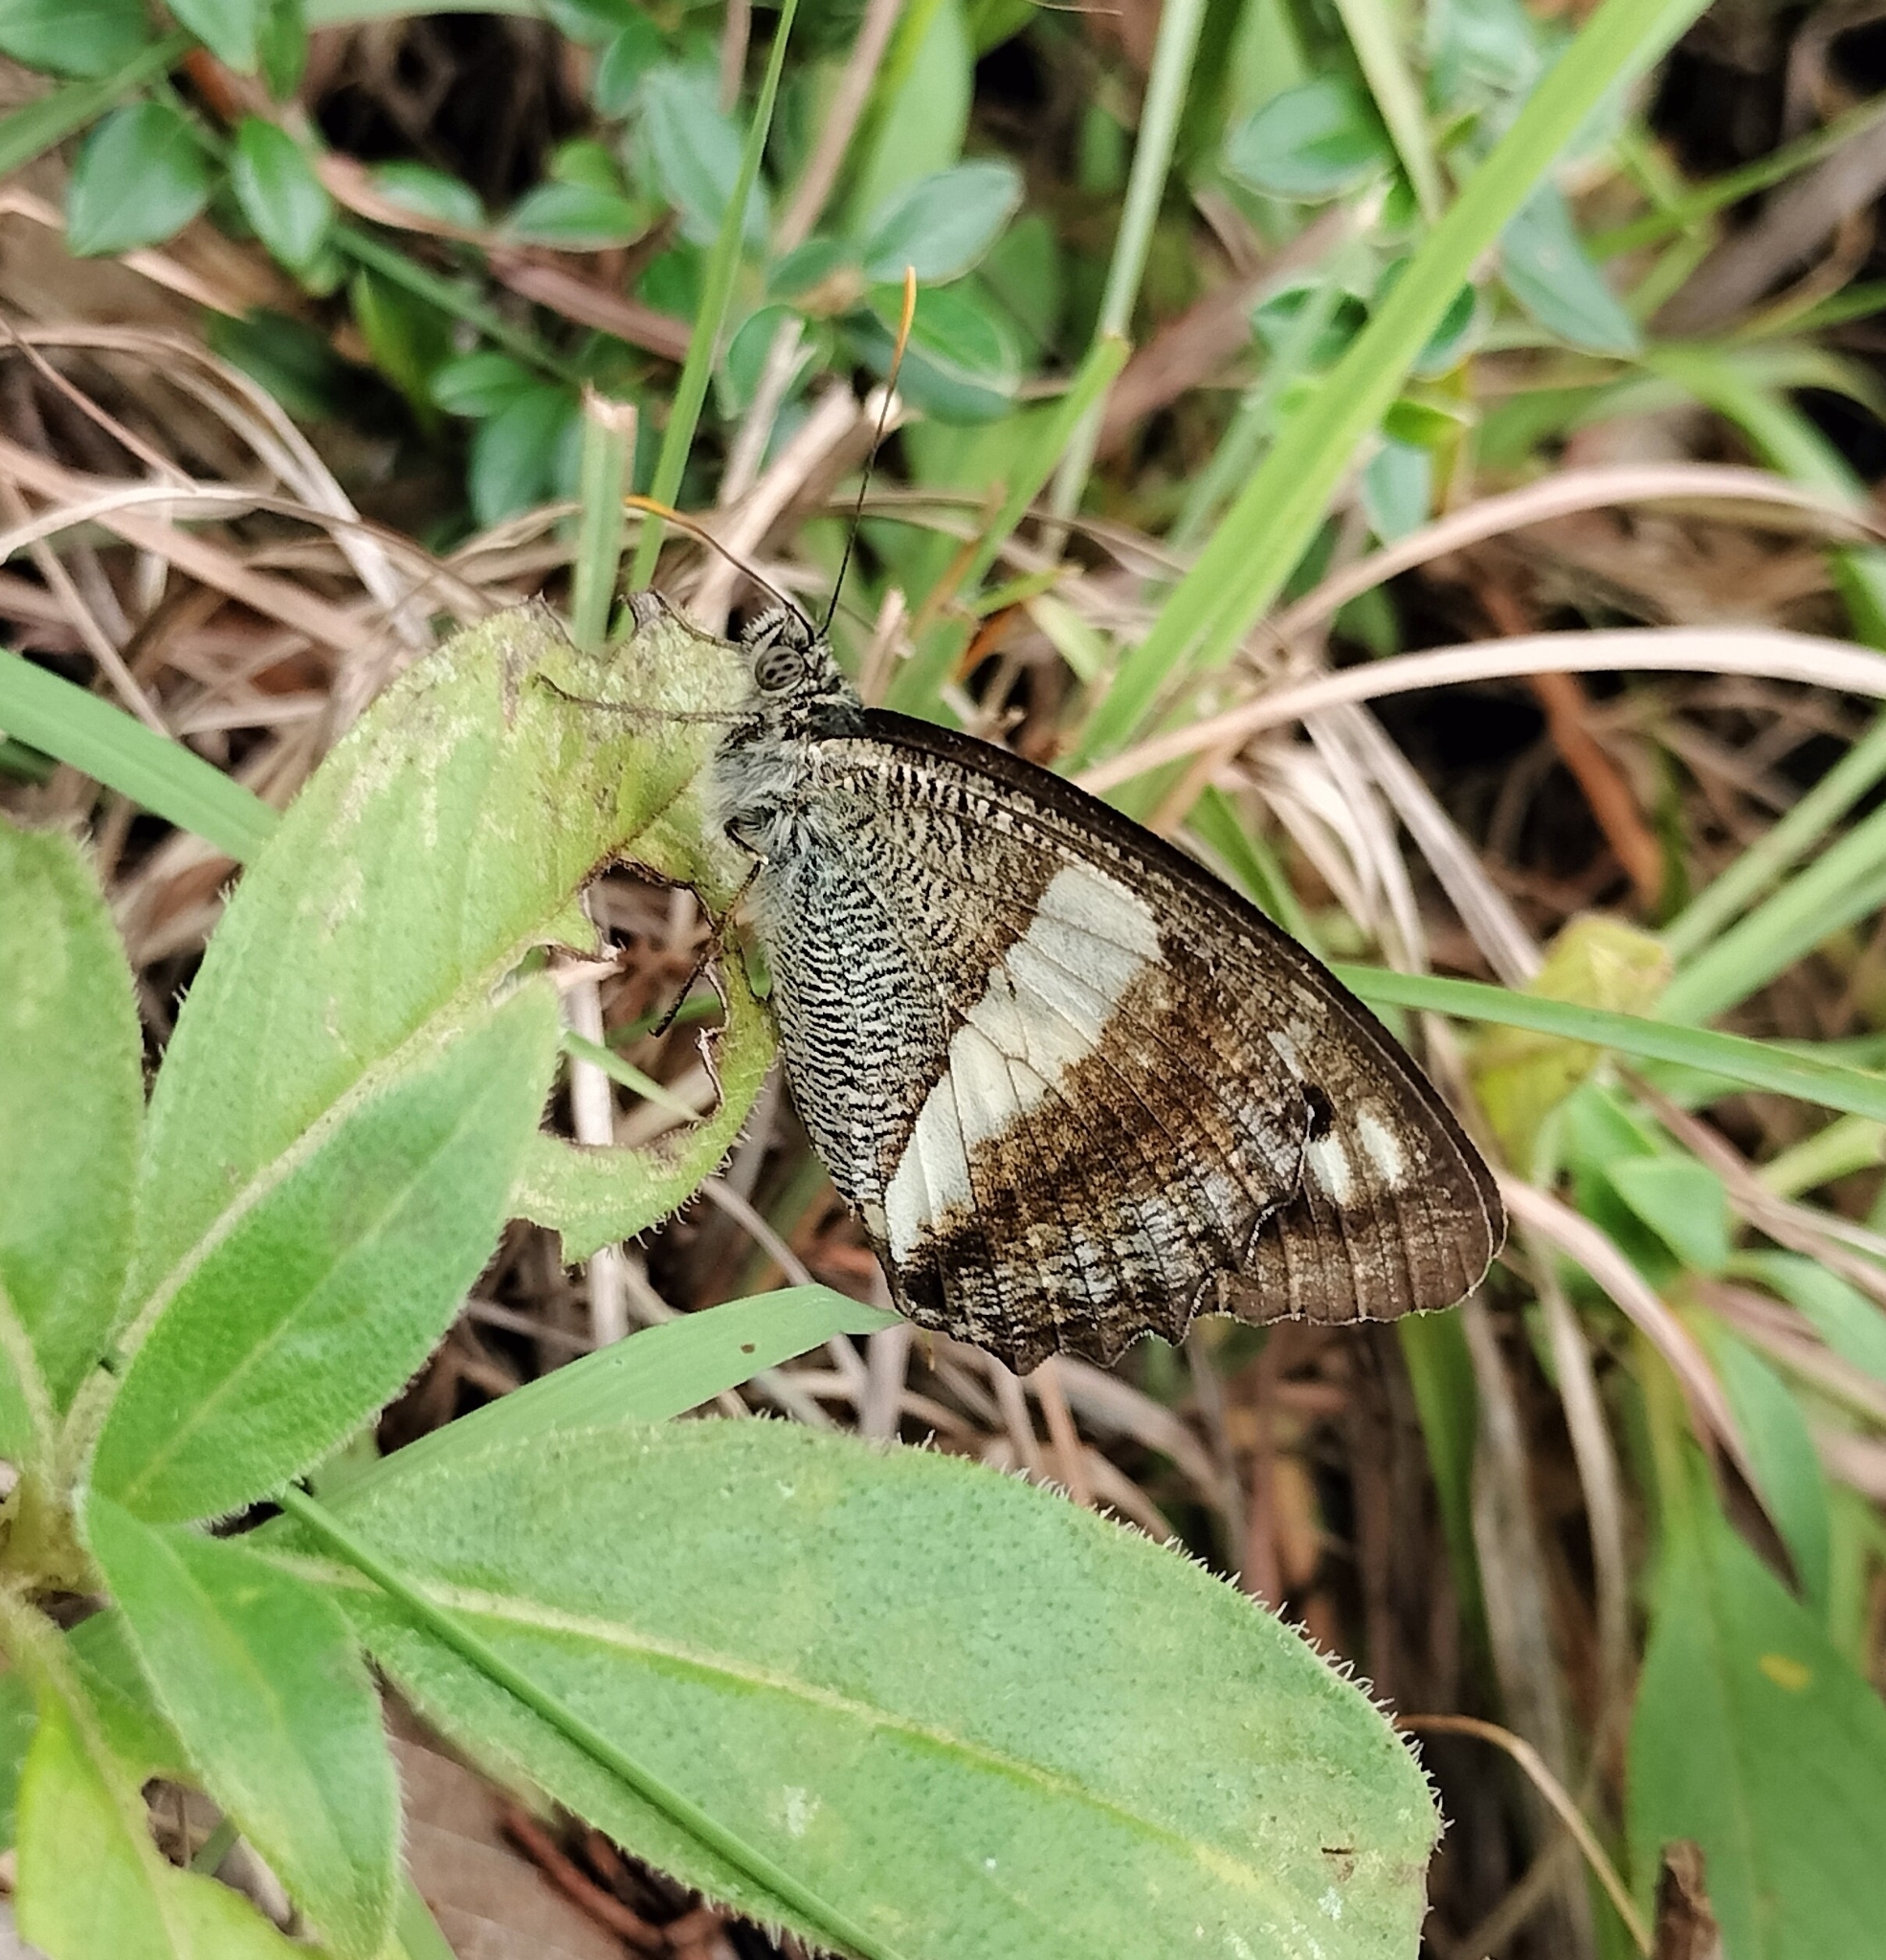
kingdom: Animalia
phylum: Arthropoda
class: Insecta
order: Lepidoptera
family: Nymphalidae
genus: Satyrus
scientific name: Satyrus
